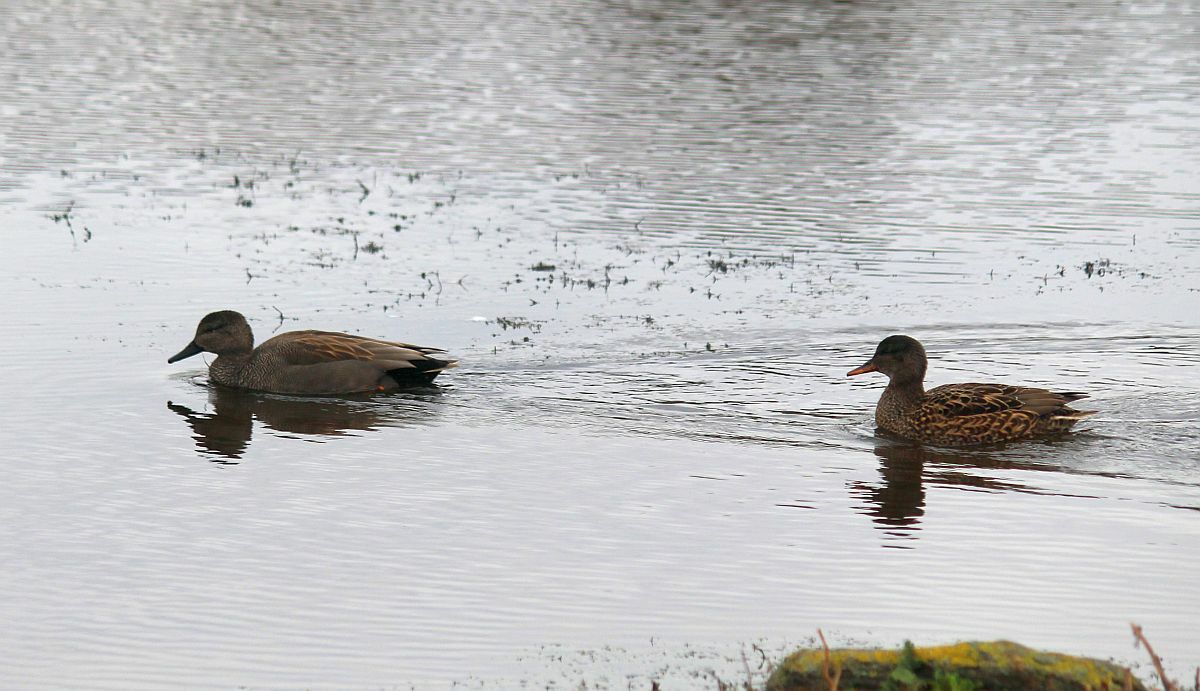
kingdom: Animalia
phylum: Chordata
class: Aves
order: Anseriformes
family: Anatidae
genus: Mareca
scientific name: Mareca strepera
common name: Gadwall
